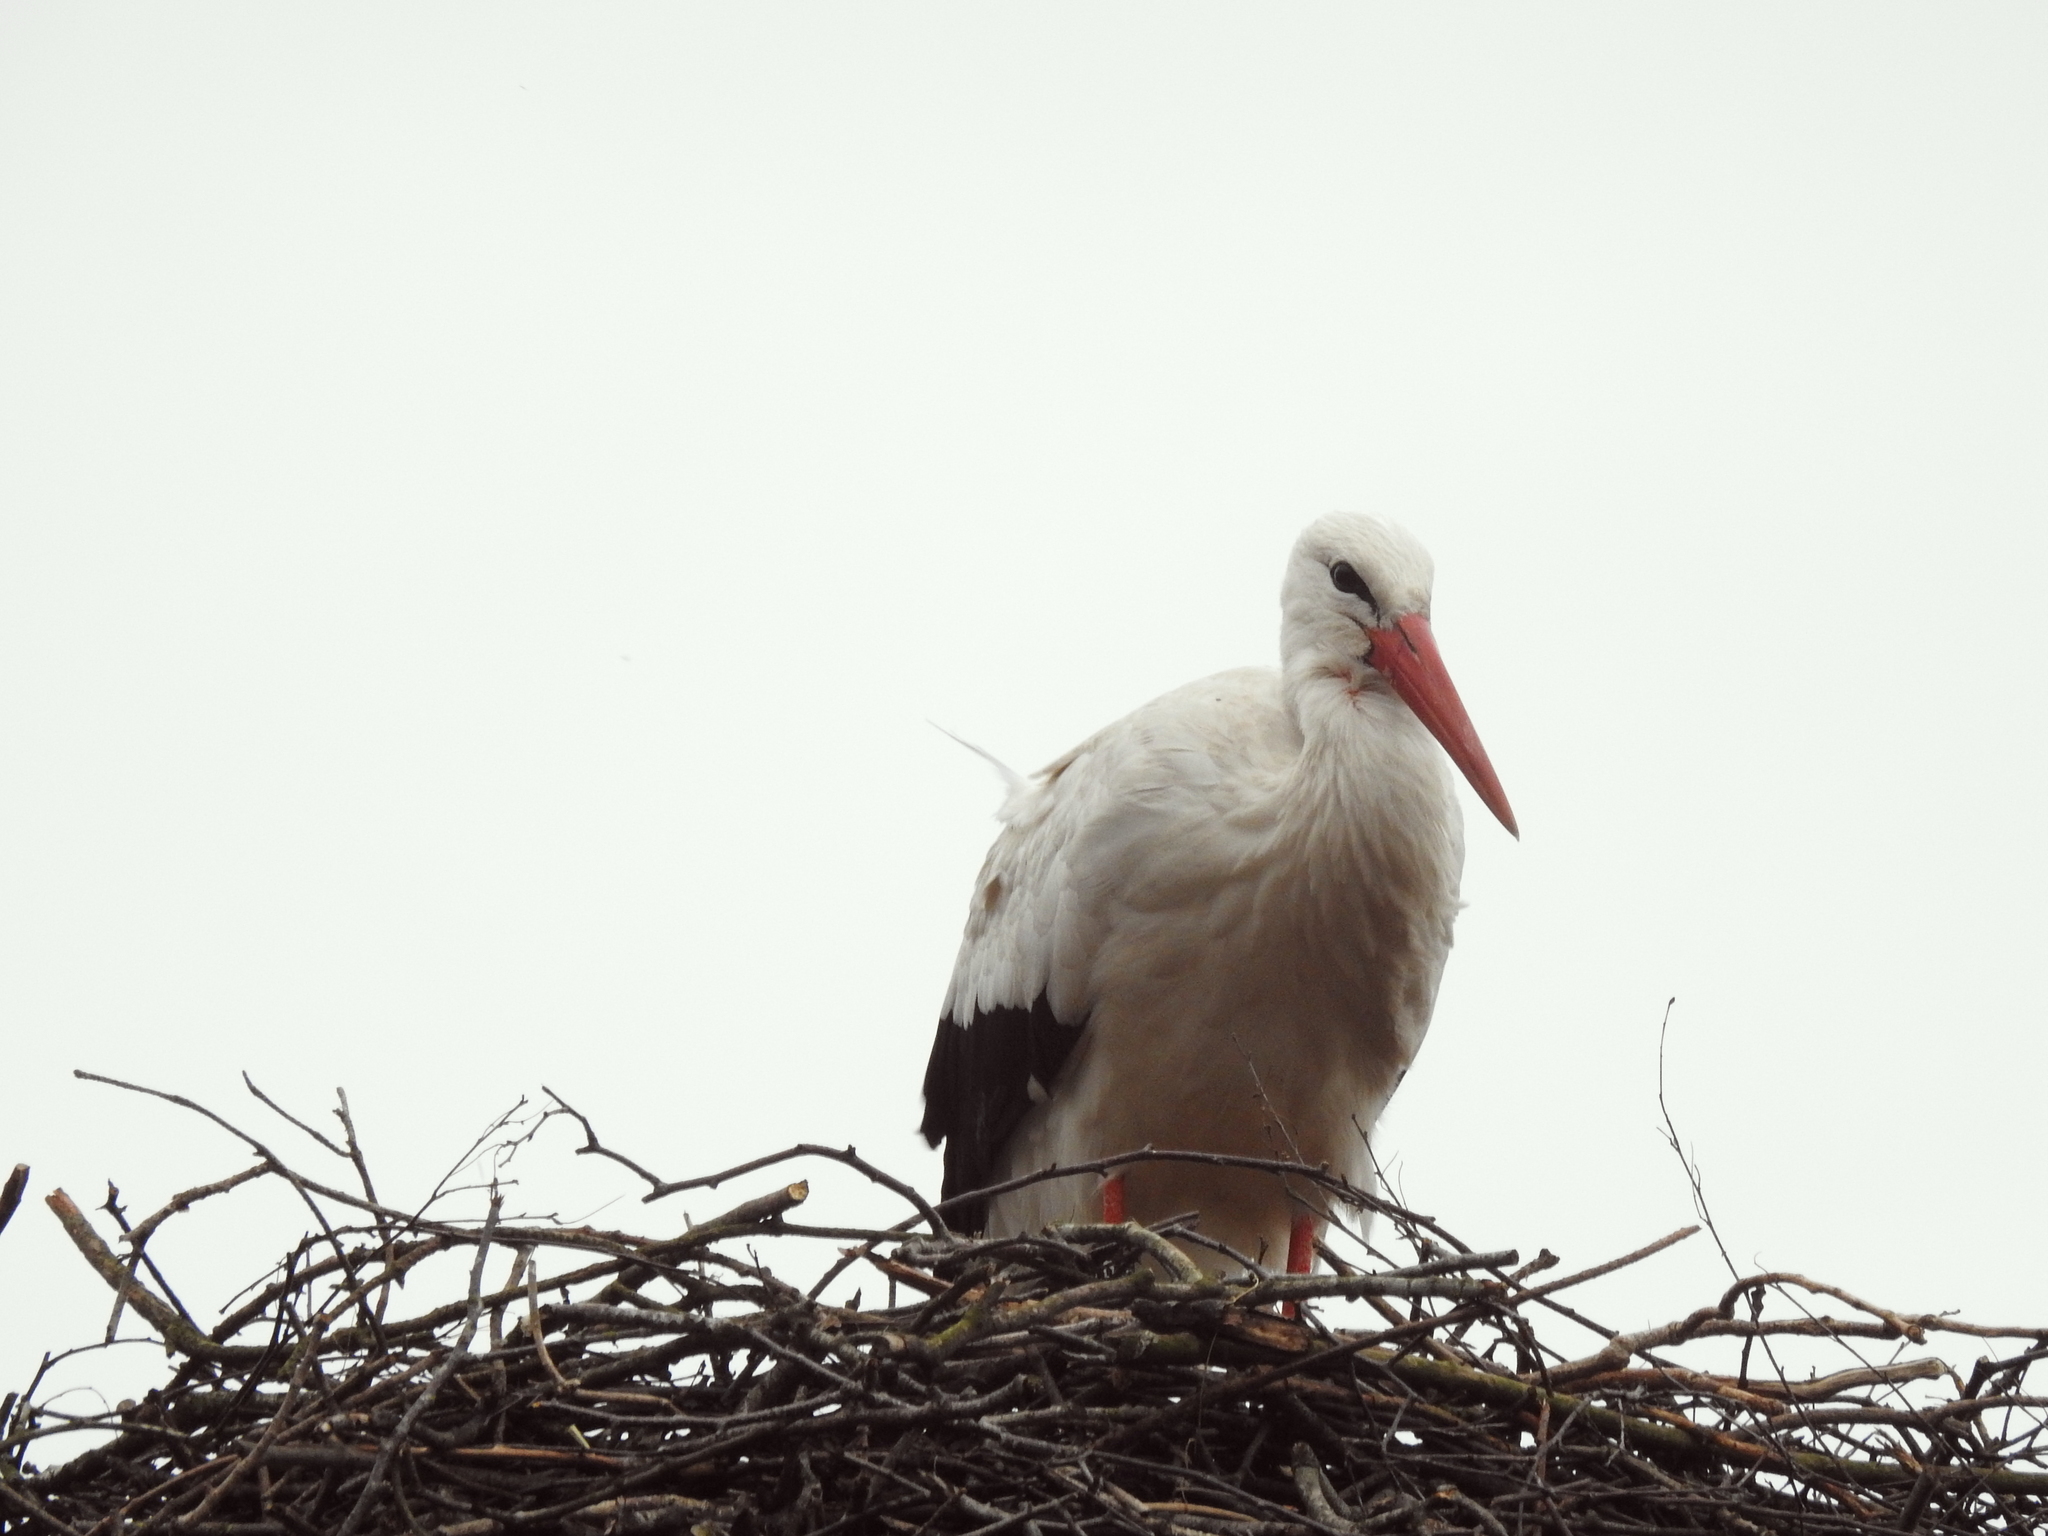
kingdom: Animalia
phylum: Chordata
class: Aves
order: Ciconiiformes
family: Ciconiidae
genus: Ciconia
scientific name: Ciconia ciconia
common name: White stork
